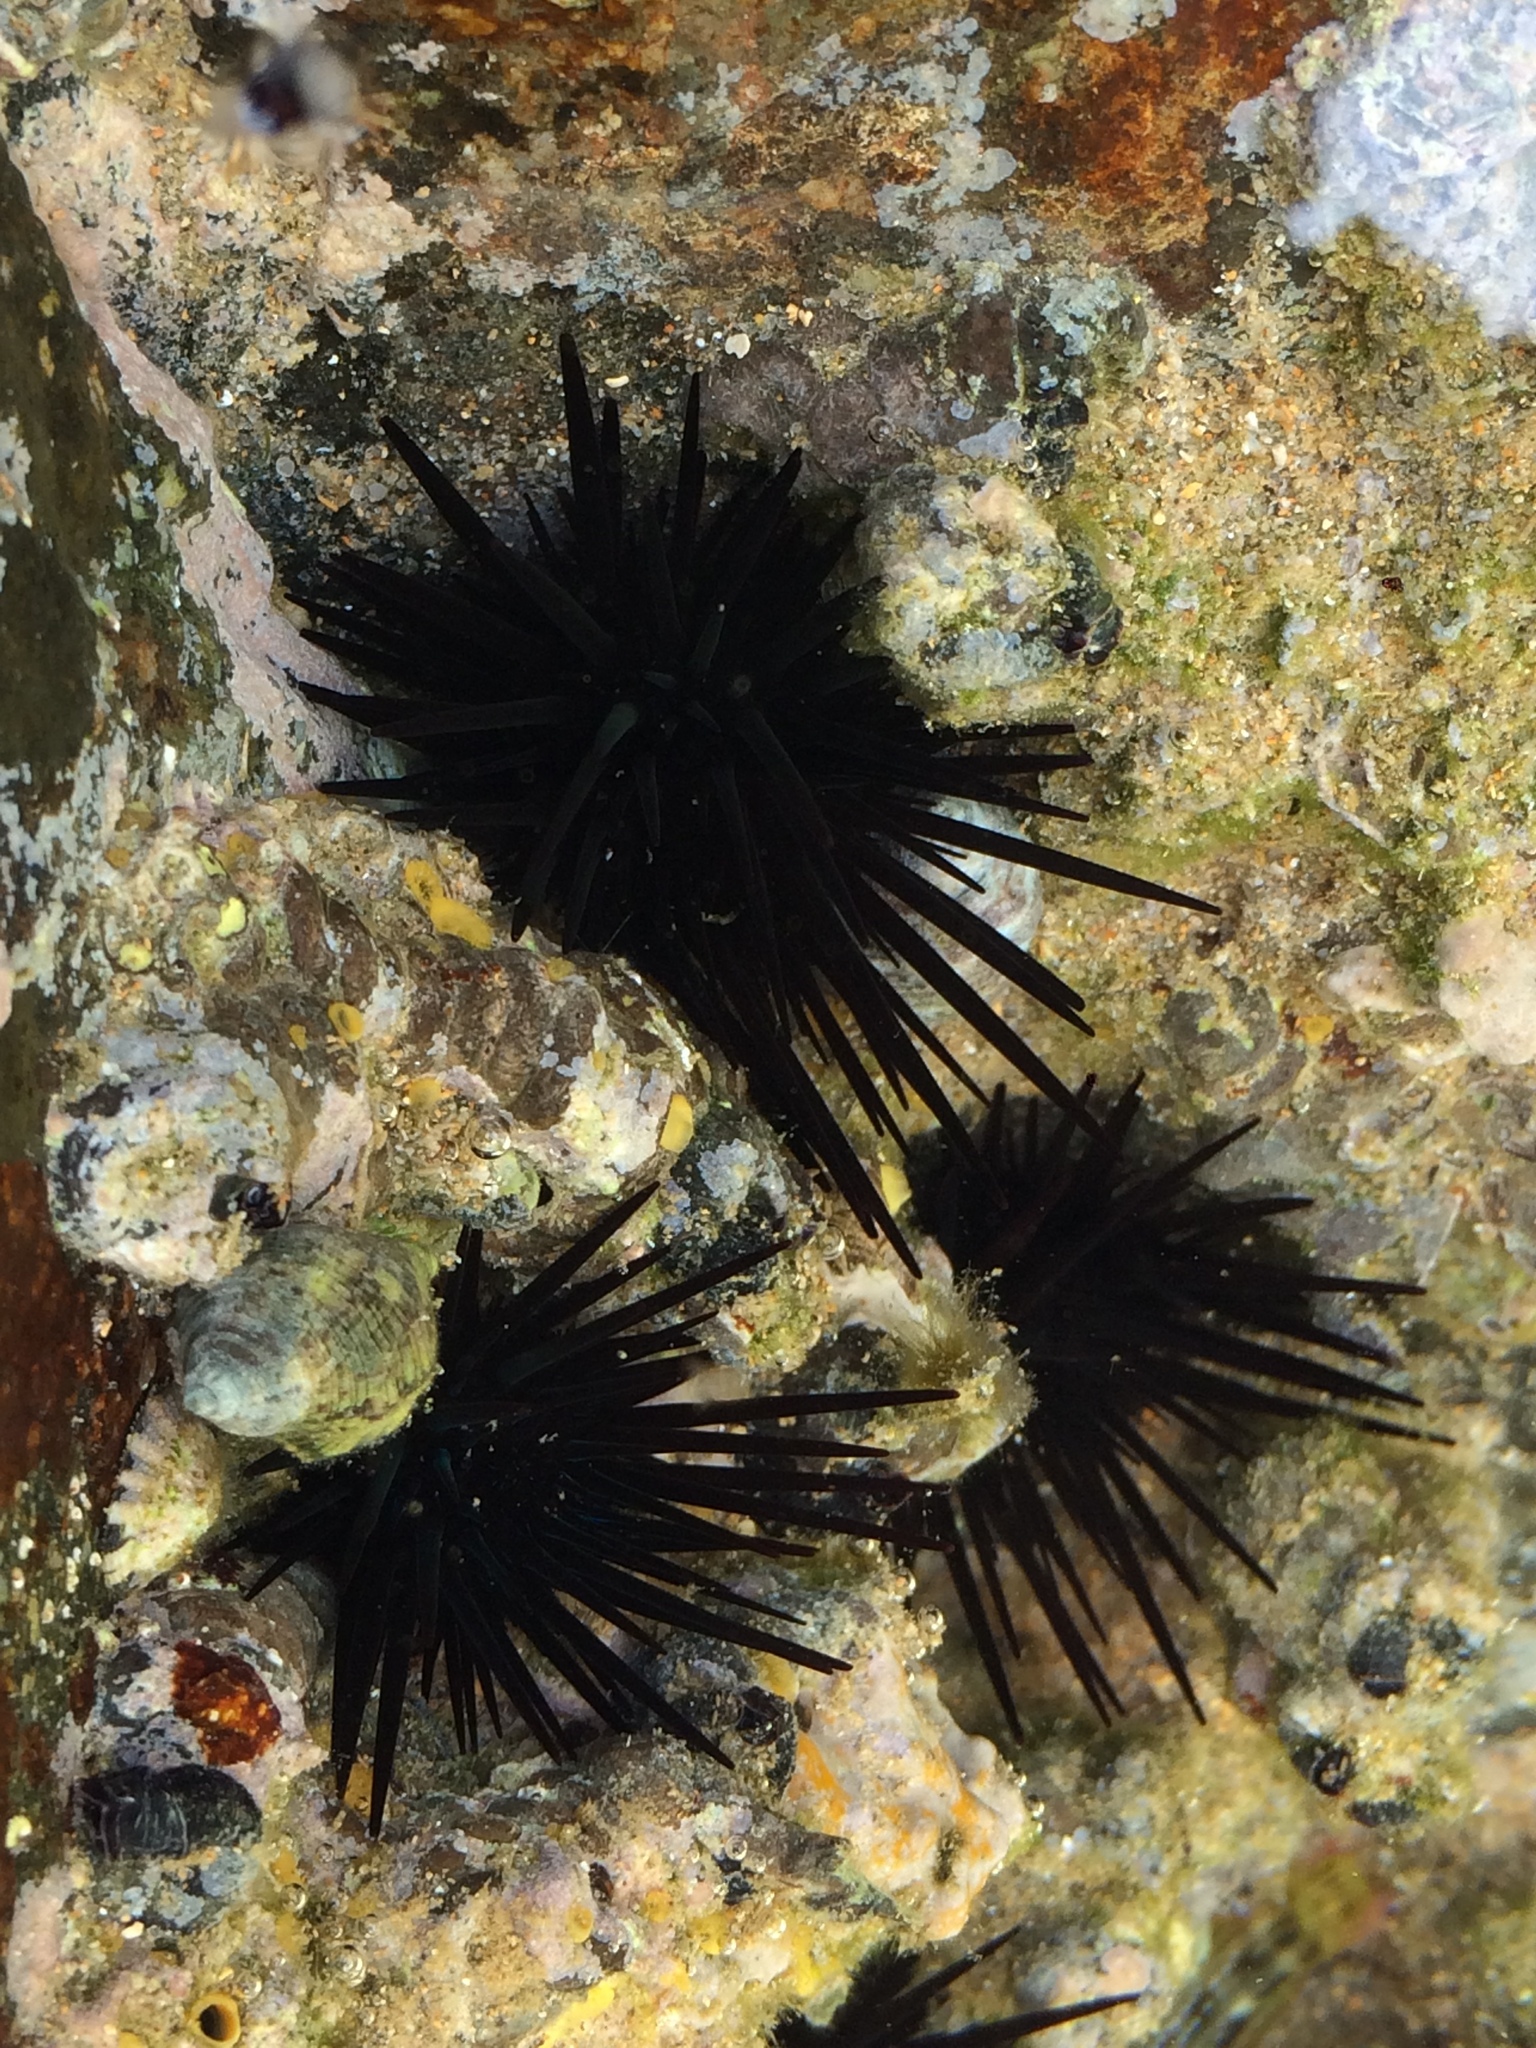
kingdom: Animalia
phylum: Echinodermata
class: Echinoidea
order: Camarodonta
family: Echinometridae
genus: Echinometra
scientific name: Echinometra lucunter
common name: Rock urchin
